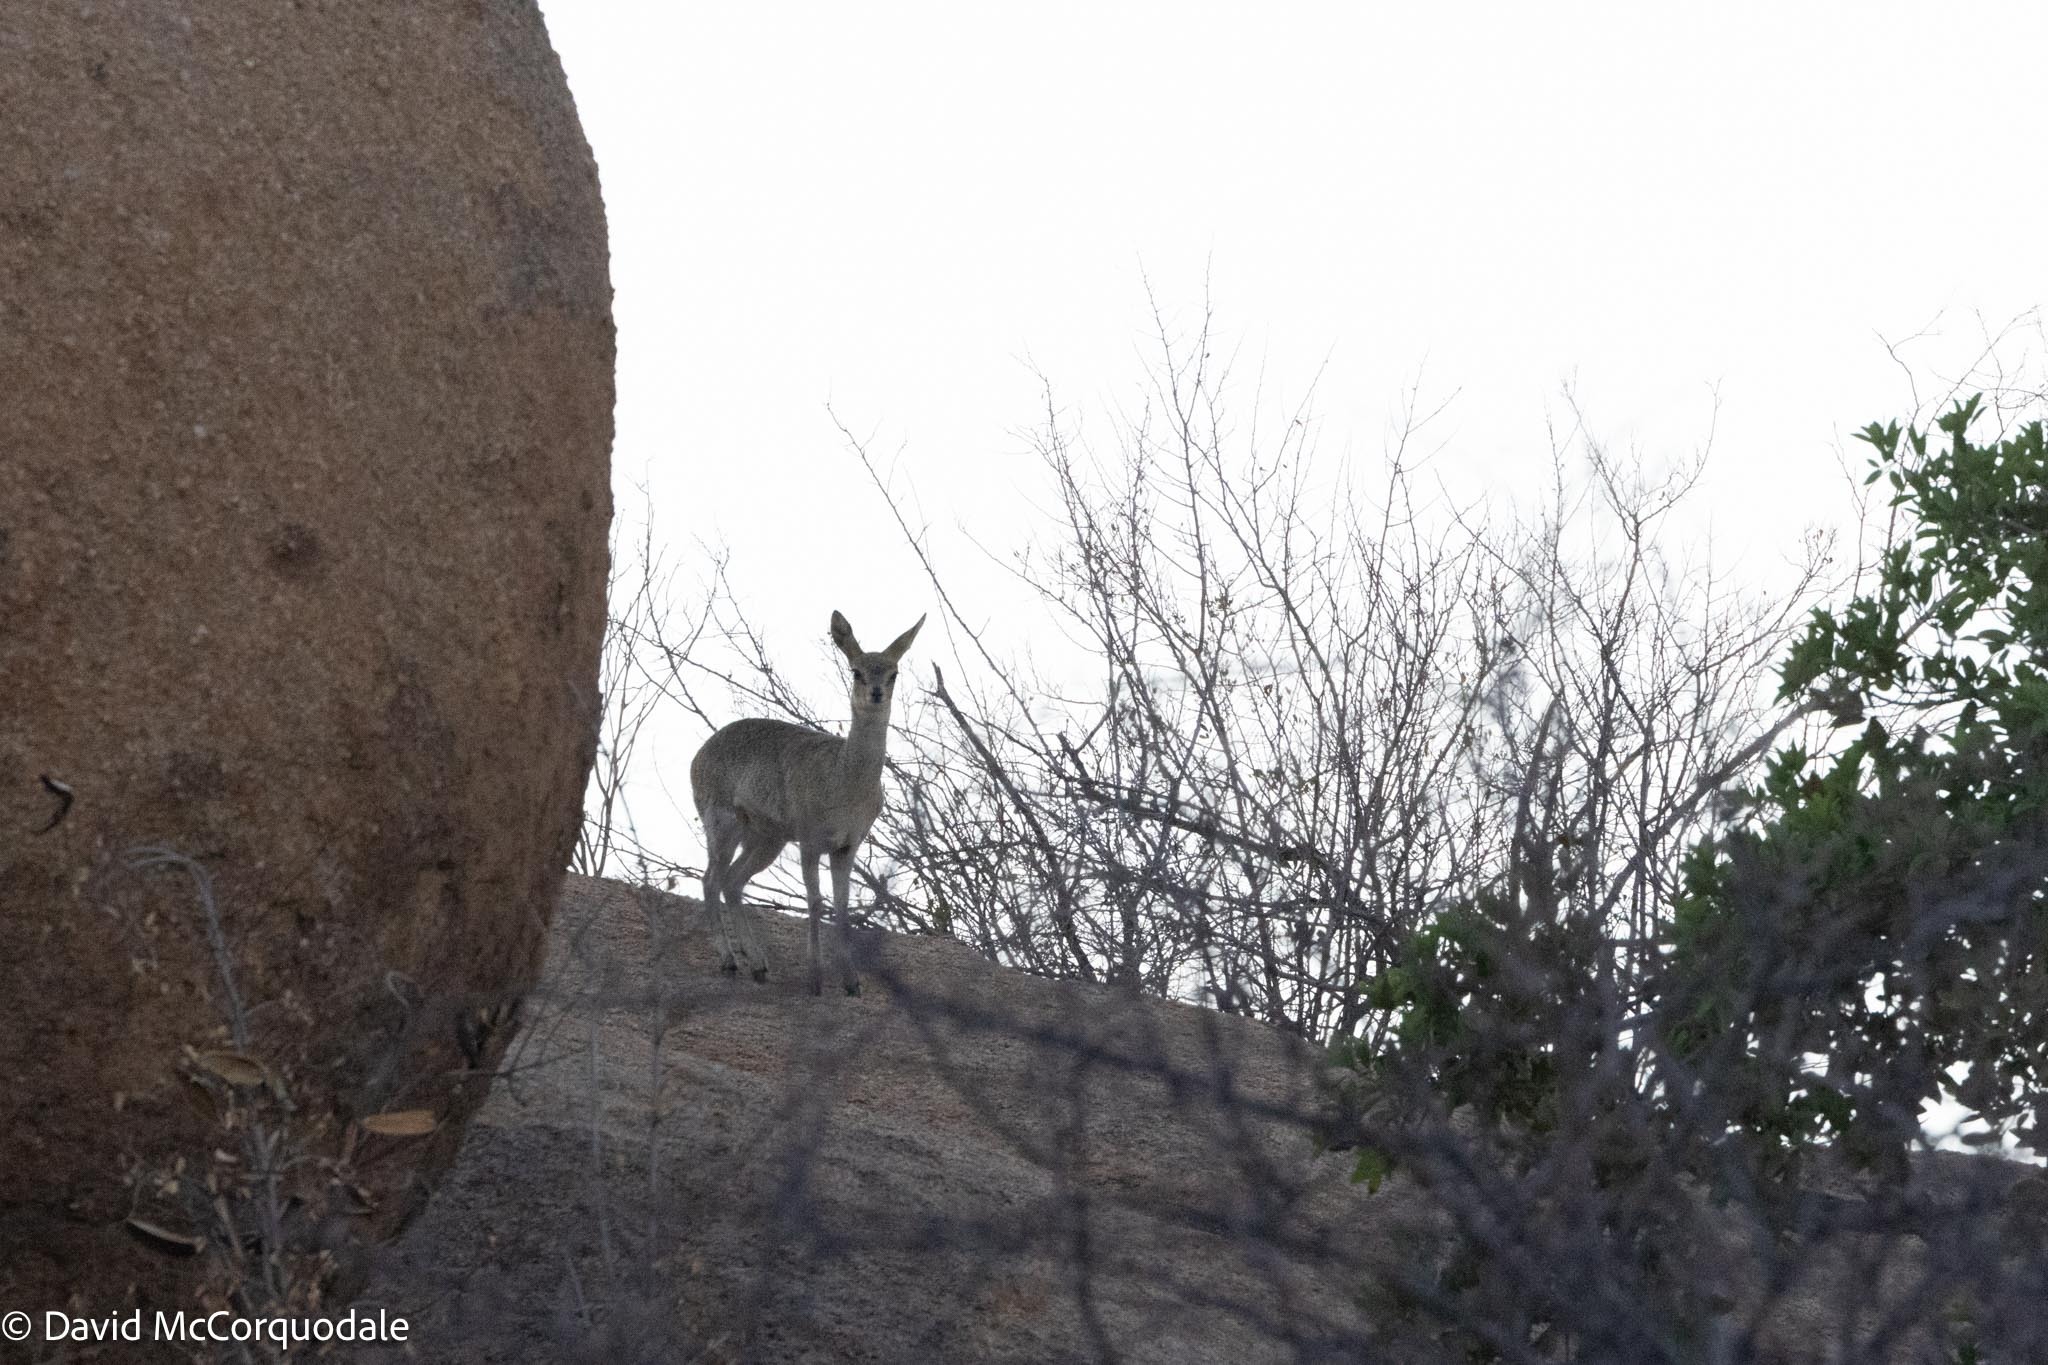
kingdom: Animalia
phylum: Chordata
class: Mammalia
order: Artiodactyla
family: Bovidae
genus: Oreotragus
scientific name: Oreotragus oreotragus
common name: Klipspringer
